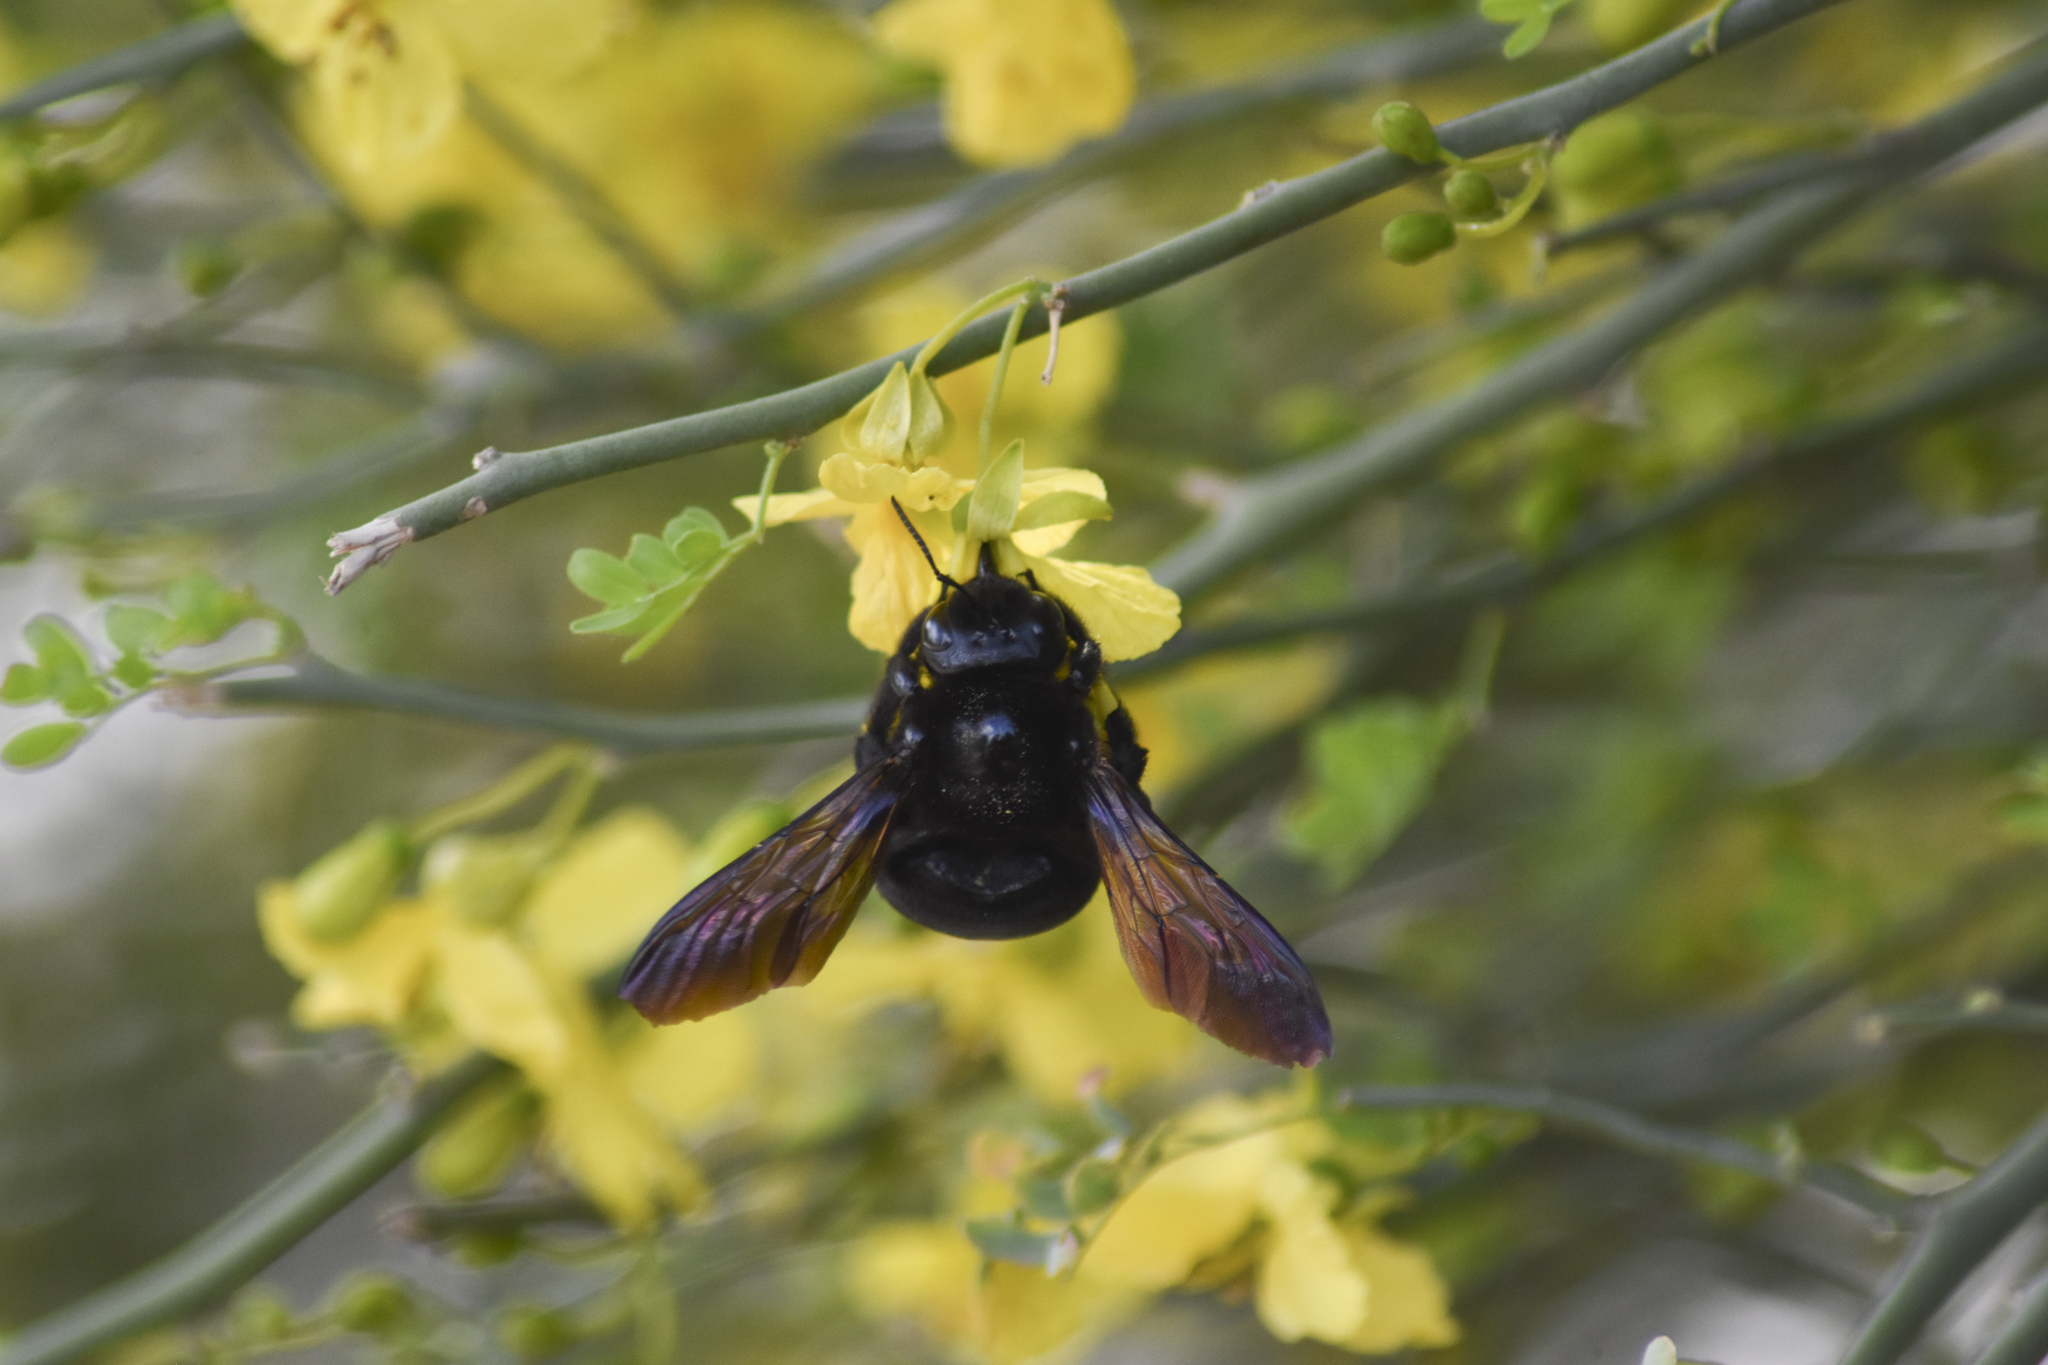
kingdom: Animalia
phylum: Arthropoda
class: Insecta
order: Hymenoptera
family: Apidae
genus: Xylocopa
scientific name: Xylocopa sonorina
